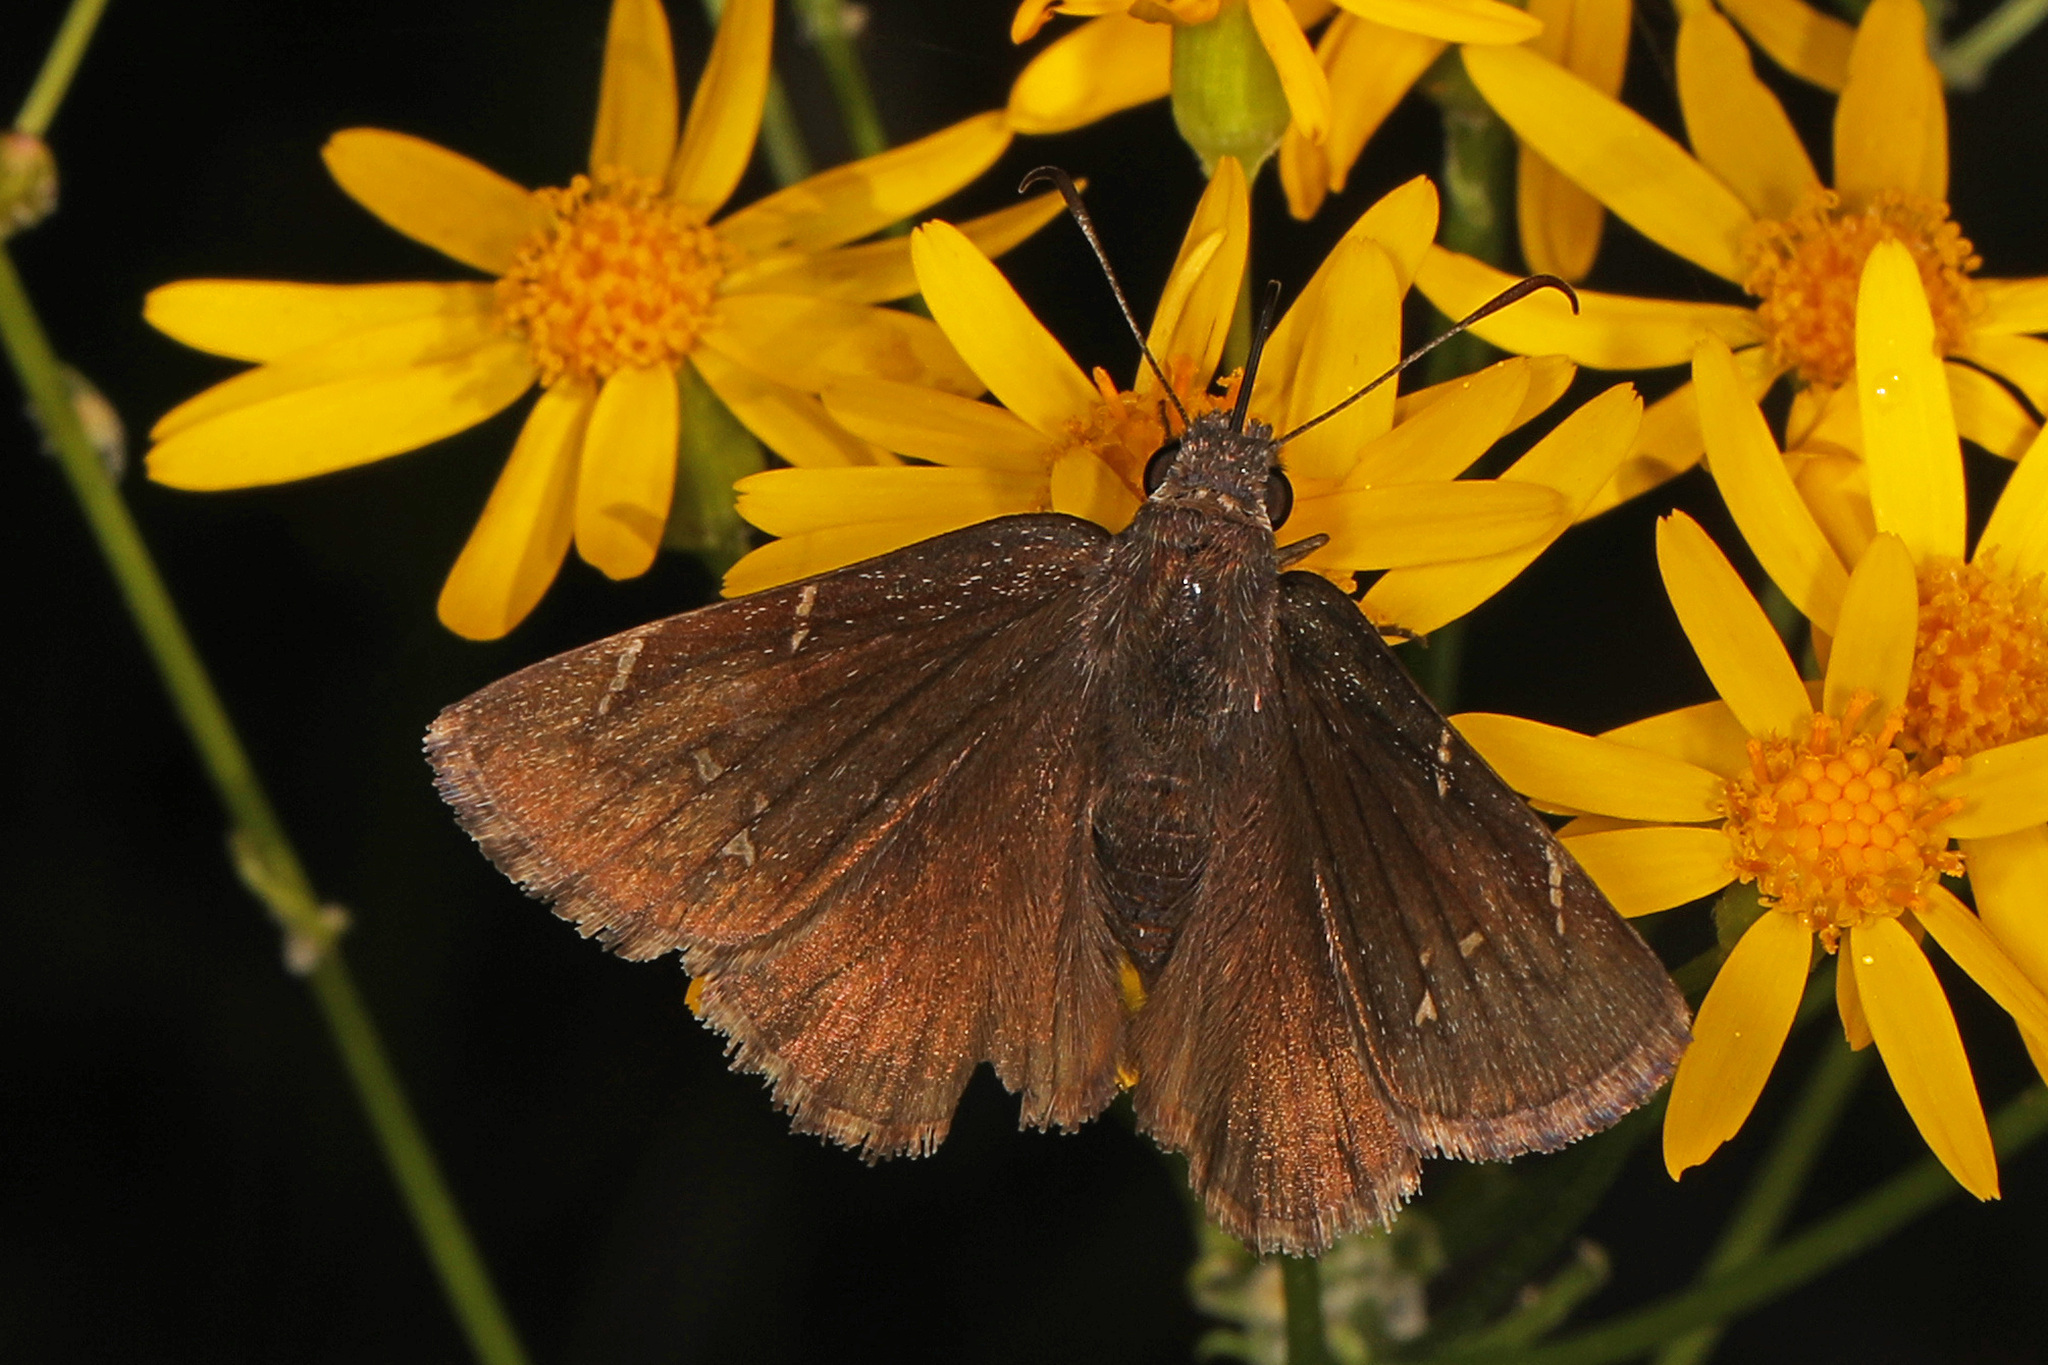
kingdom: Animalia
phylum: Arthropoda
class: Insecta
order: Lepidoptera
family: Hesperiidae
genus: Thorybes
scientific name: Thorybes pylades
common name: Northern cloudywing
